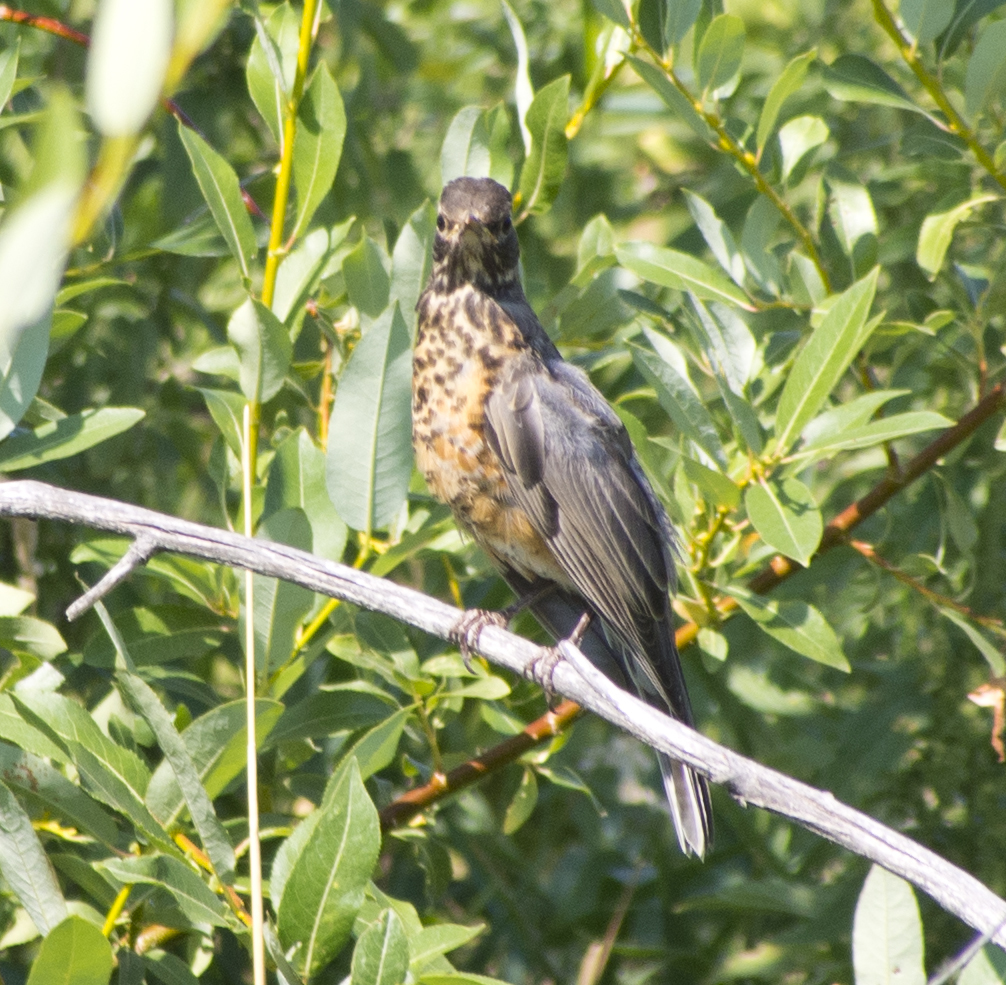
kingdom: Animalia
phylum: Chordata
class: Aves
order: Passeriformes
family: Turdidae
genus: Turdus
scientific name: Turdus migratorius
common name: American robin
